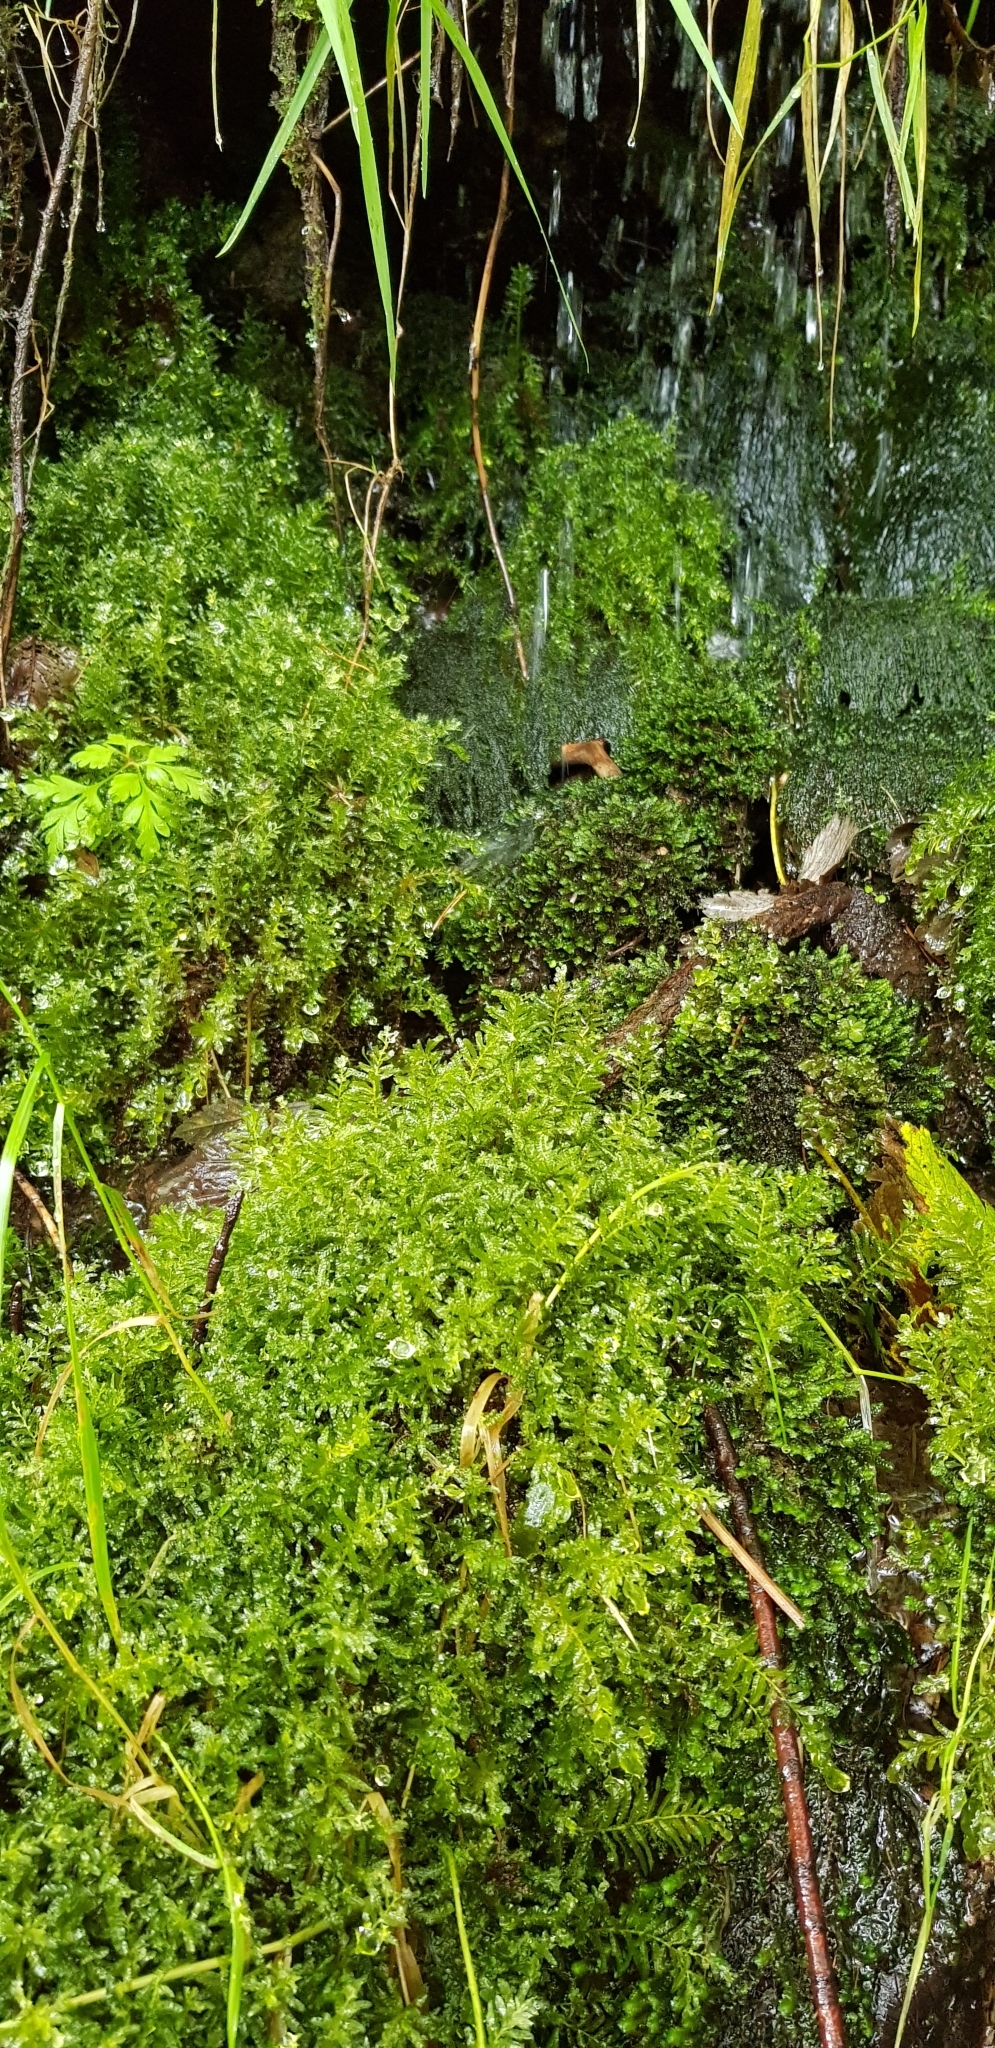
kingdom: Plantae
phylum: Bryophyta
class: Bryopsida
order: Bryales
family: Mniaceae
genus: Plagiomnium
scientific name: Plagiomnium undulatum
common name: Hart's-tongue thyme-moss
